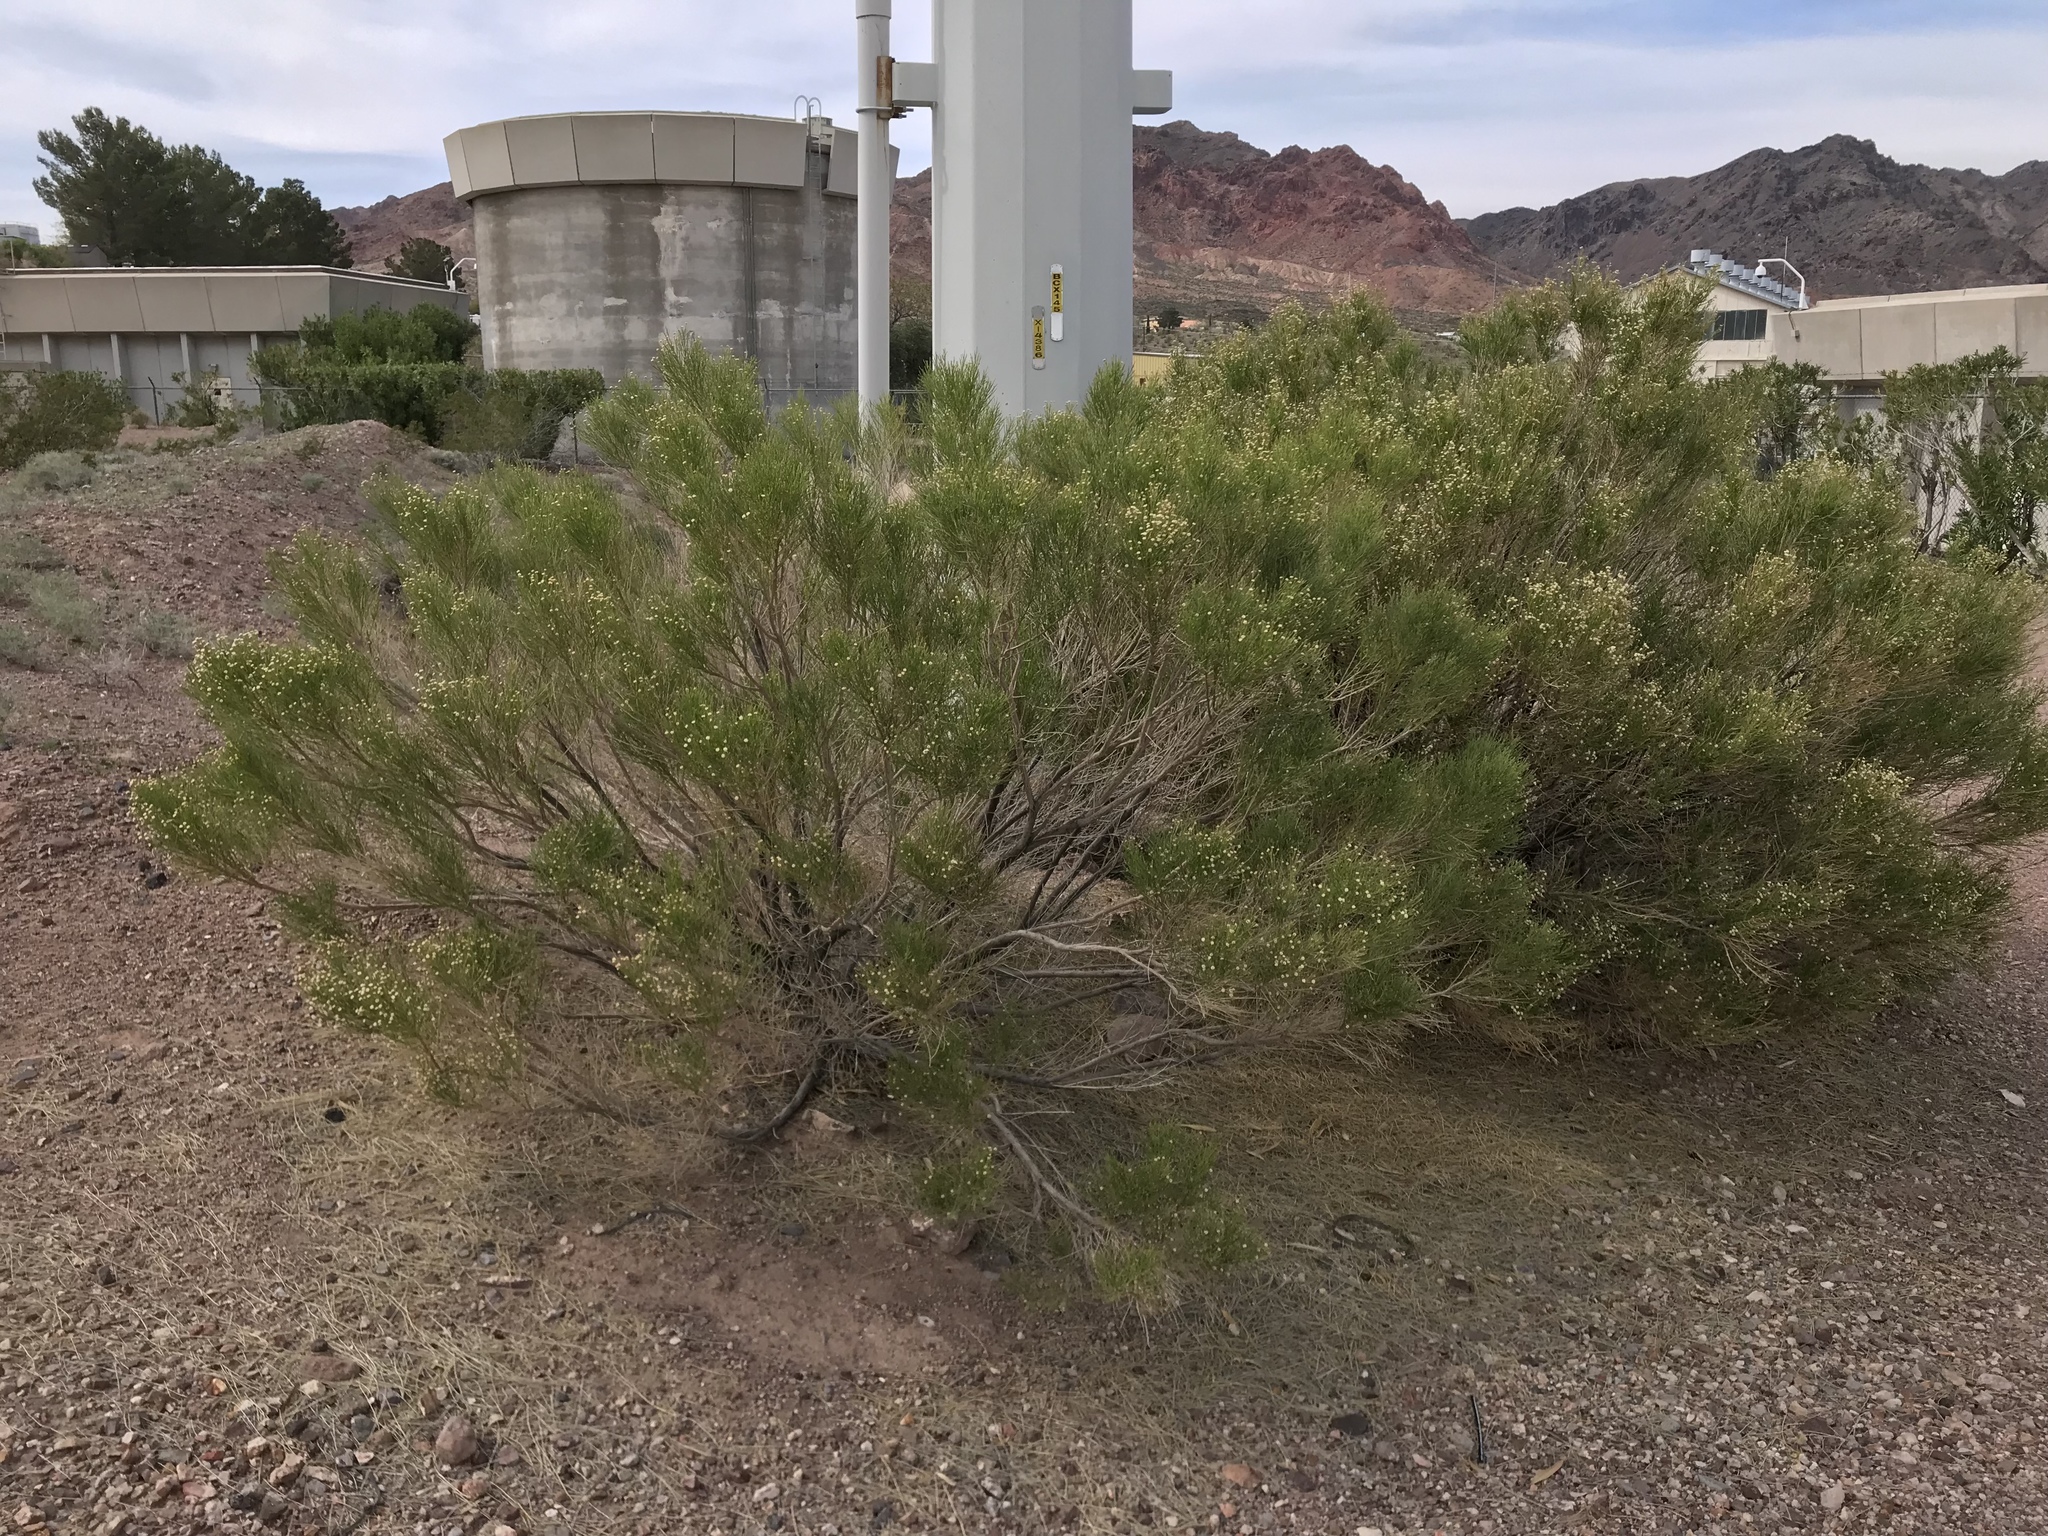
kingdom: Plantae
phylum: Tracheophyta
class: Magnoliopsida
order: Asterales
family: Asteraceae
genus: Baccharis
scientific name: Baccharis sarothroides
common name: Desert-broom
